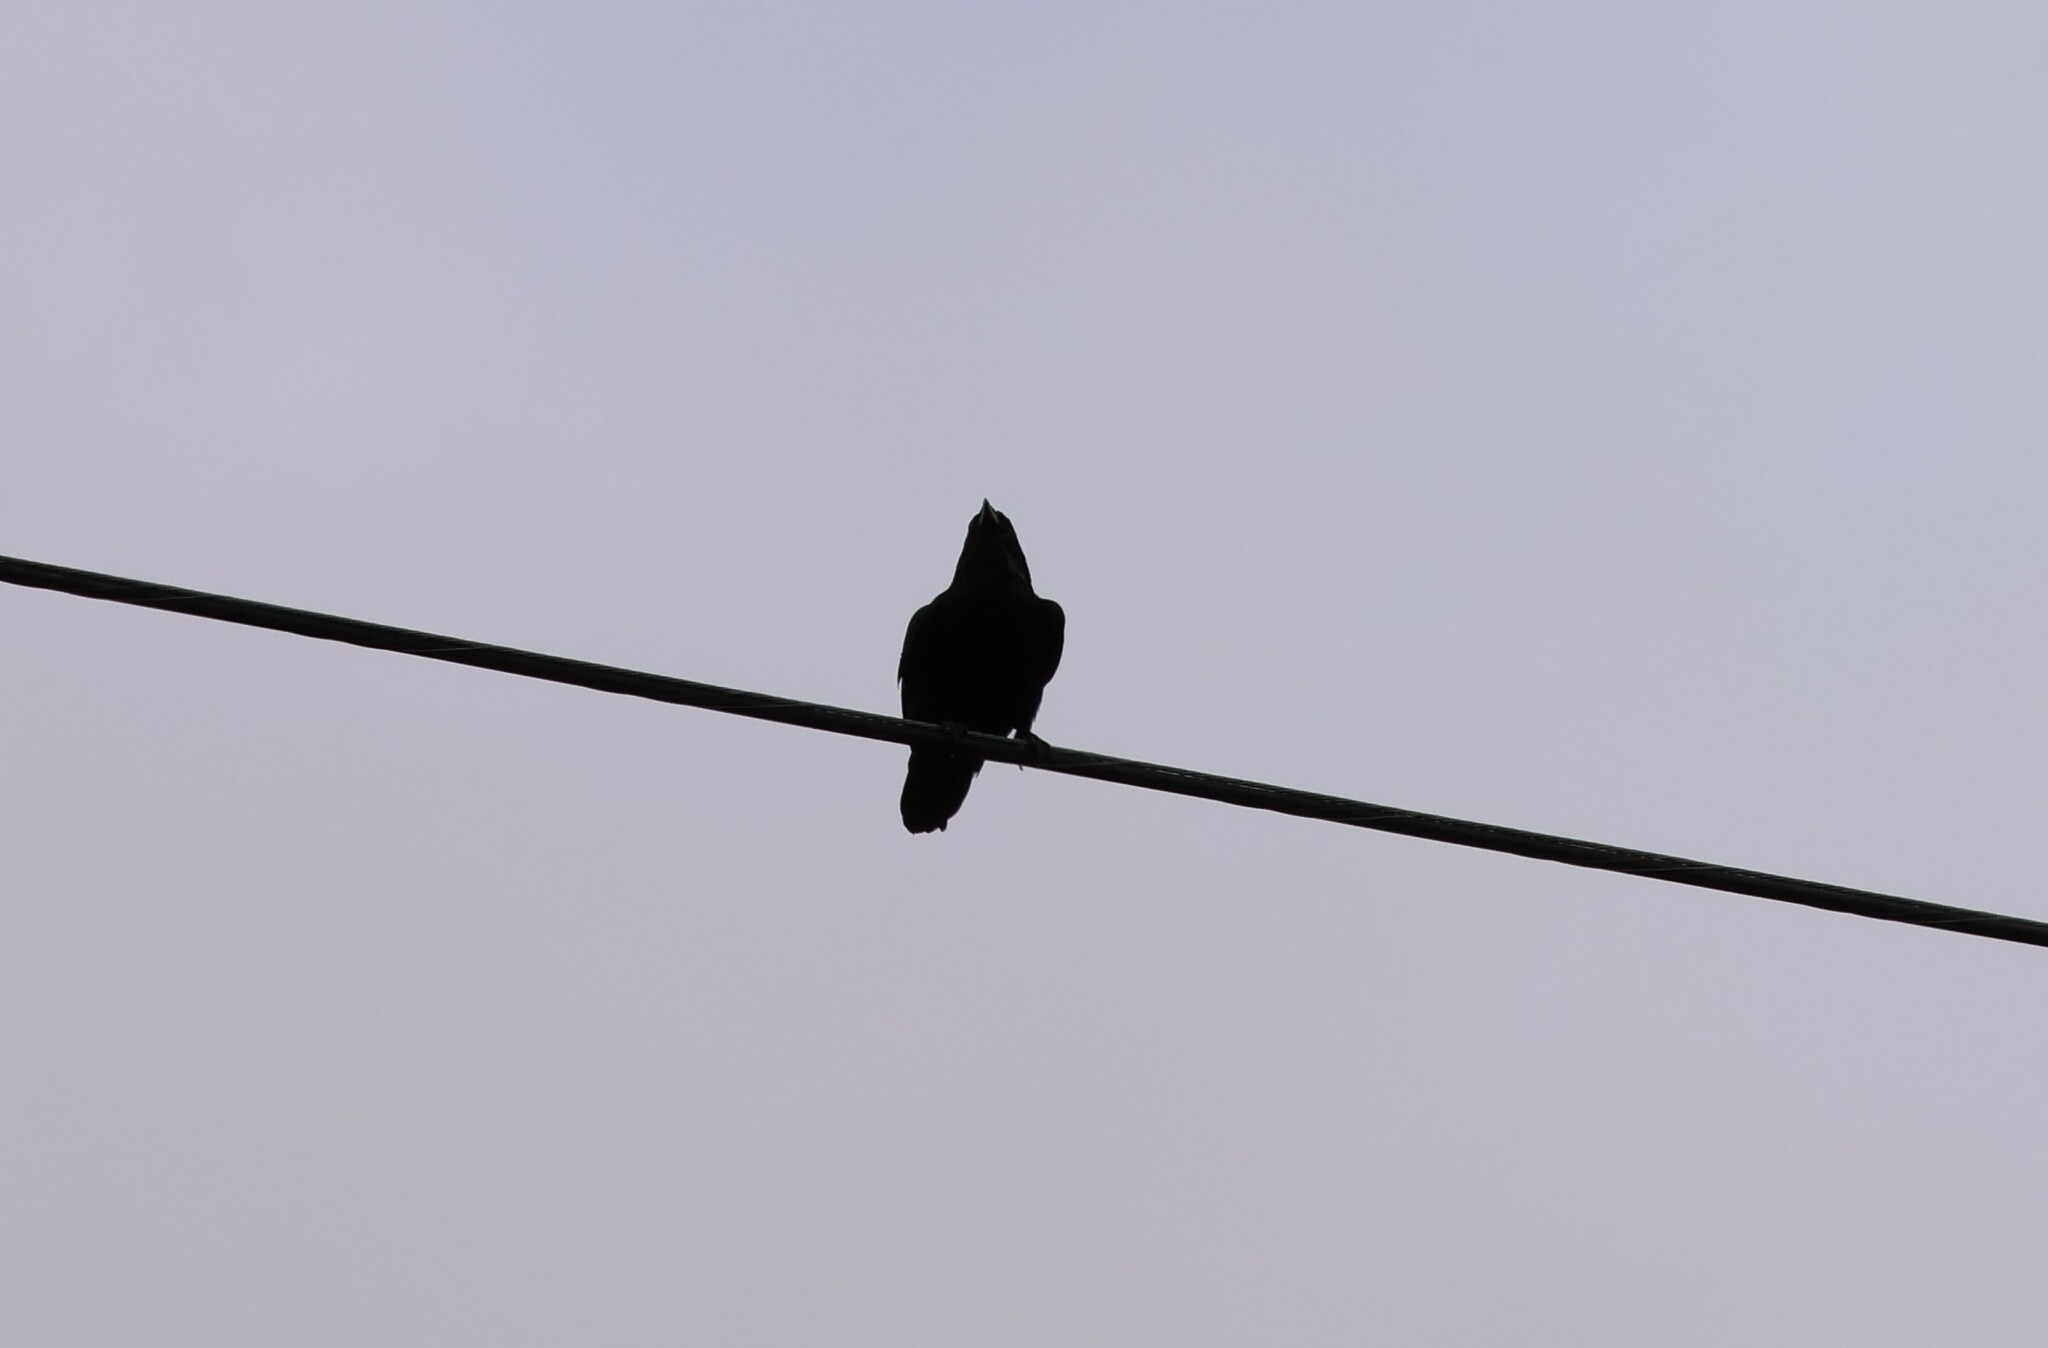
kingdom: Animalia
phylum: Chordata
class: Aves
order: Passeriformes
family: Corvidae
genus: Corvus
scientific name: Corvus corax
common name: Common raven
